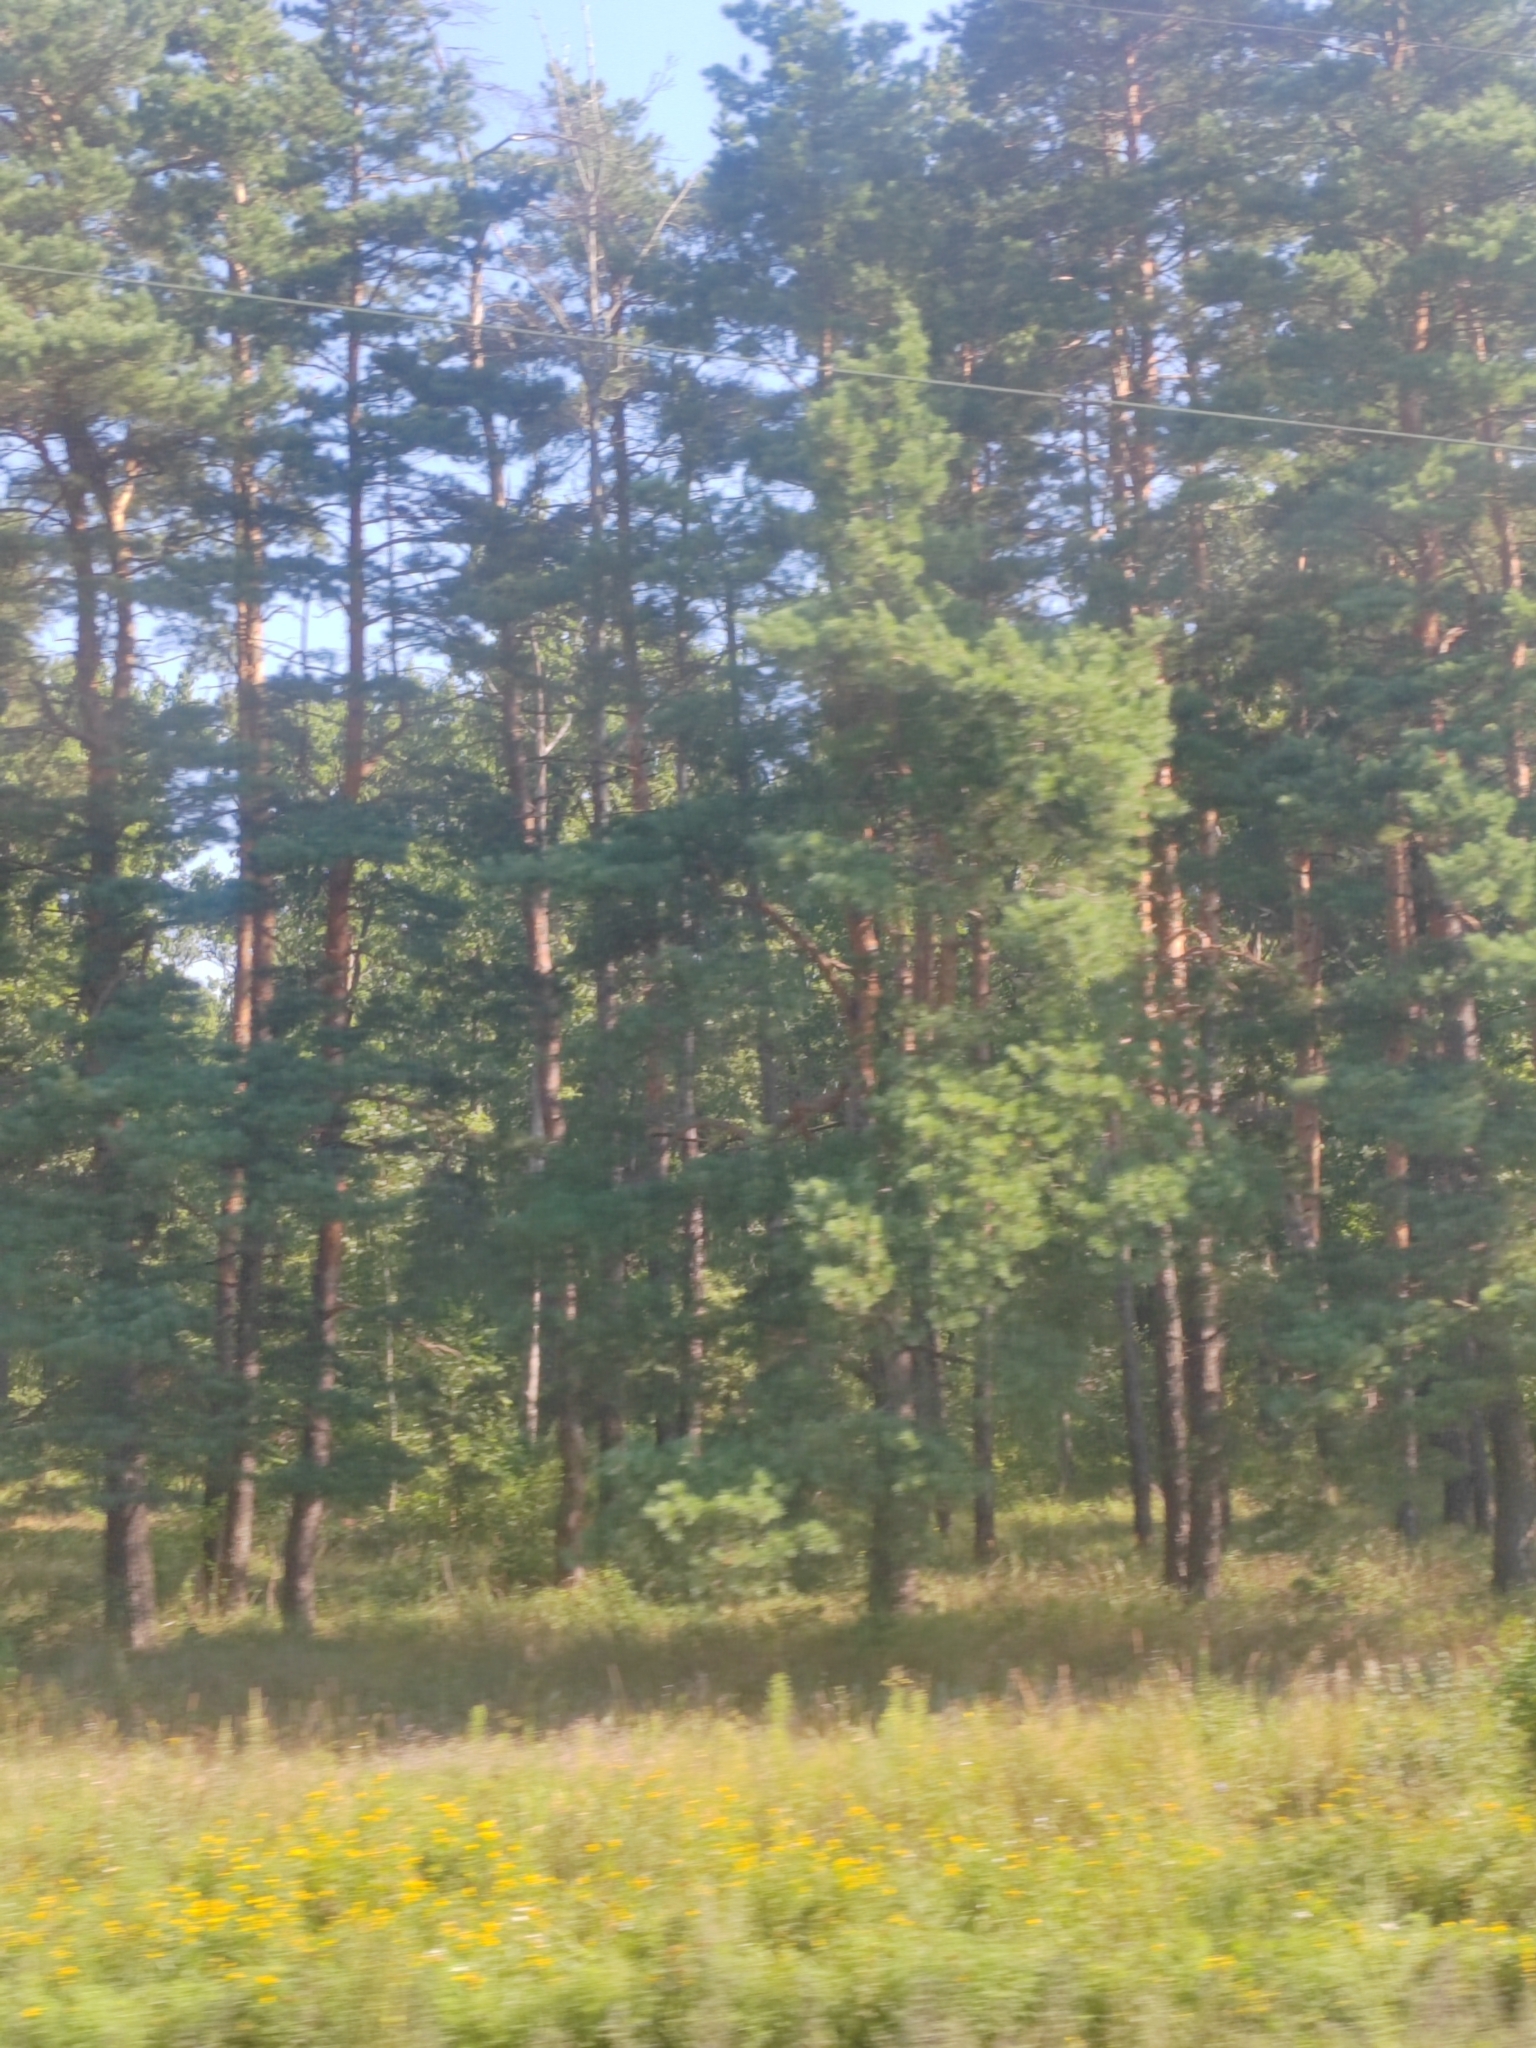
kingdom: Plantae
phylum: Tracheophyta
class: Pinopsida
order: Pinales
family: Pinaceae
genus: Pinus
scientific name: Pinus sylvestris
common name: Scots pine
